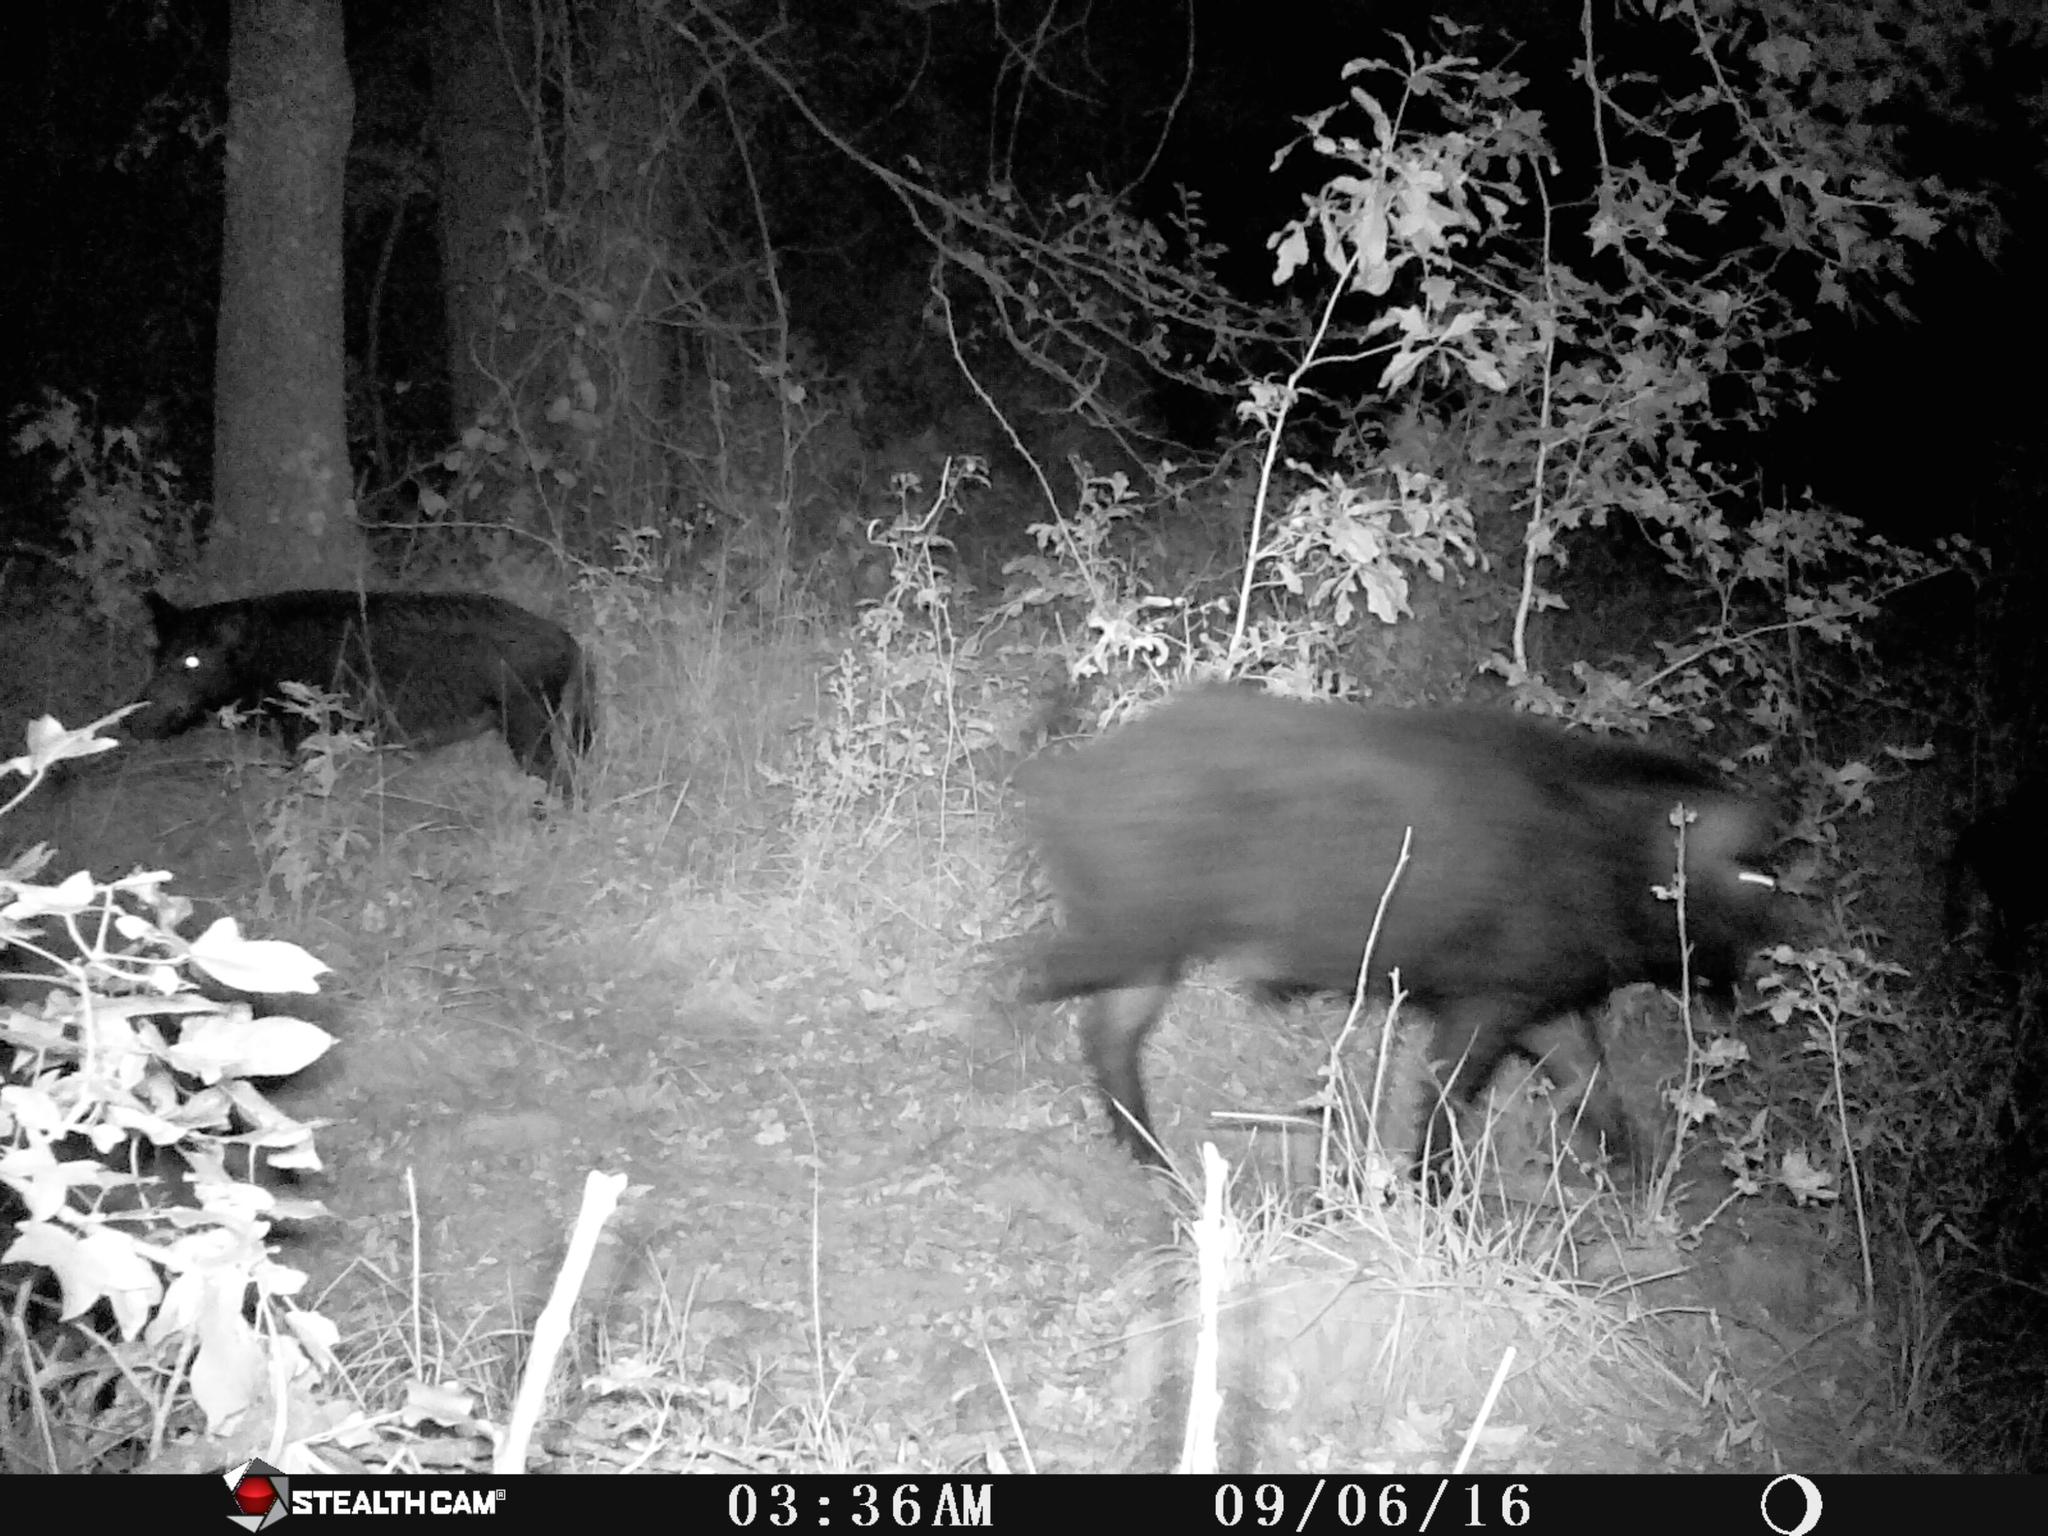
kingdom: Animalia
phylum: Chordata
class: Mammalia
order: Artiodactyla
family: Suidae
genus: Sus
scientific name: Sus scrofa
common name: Wild boar
